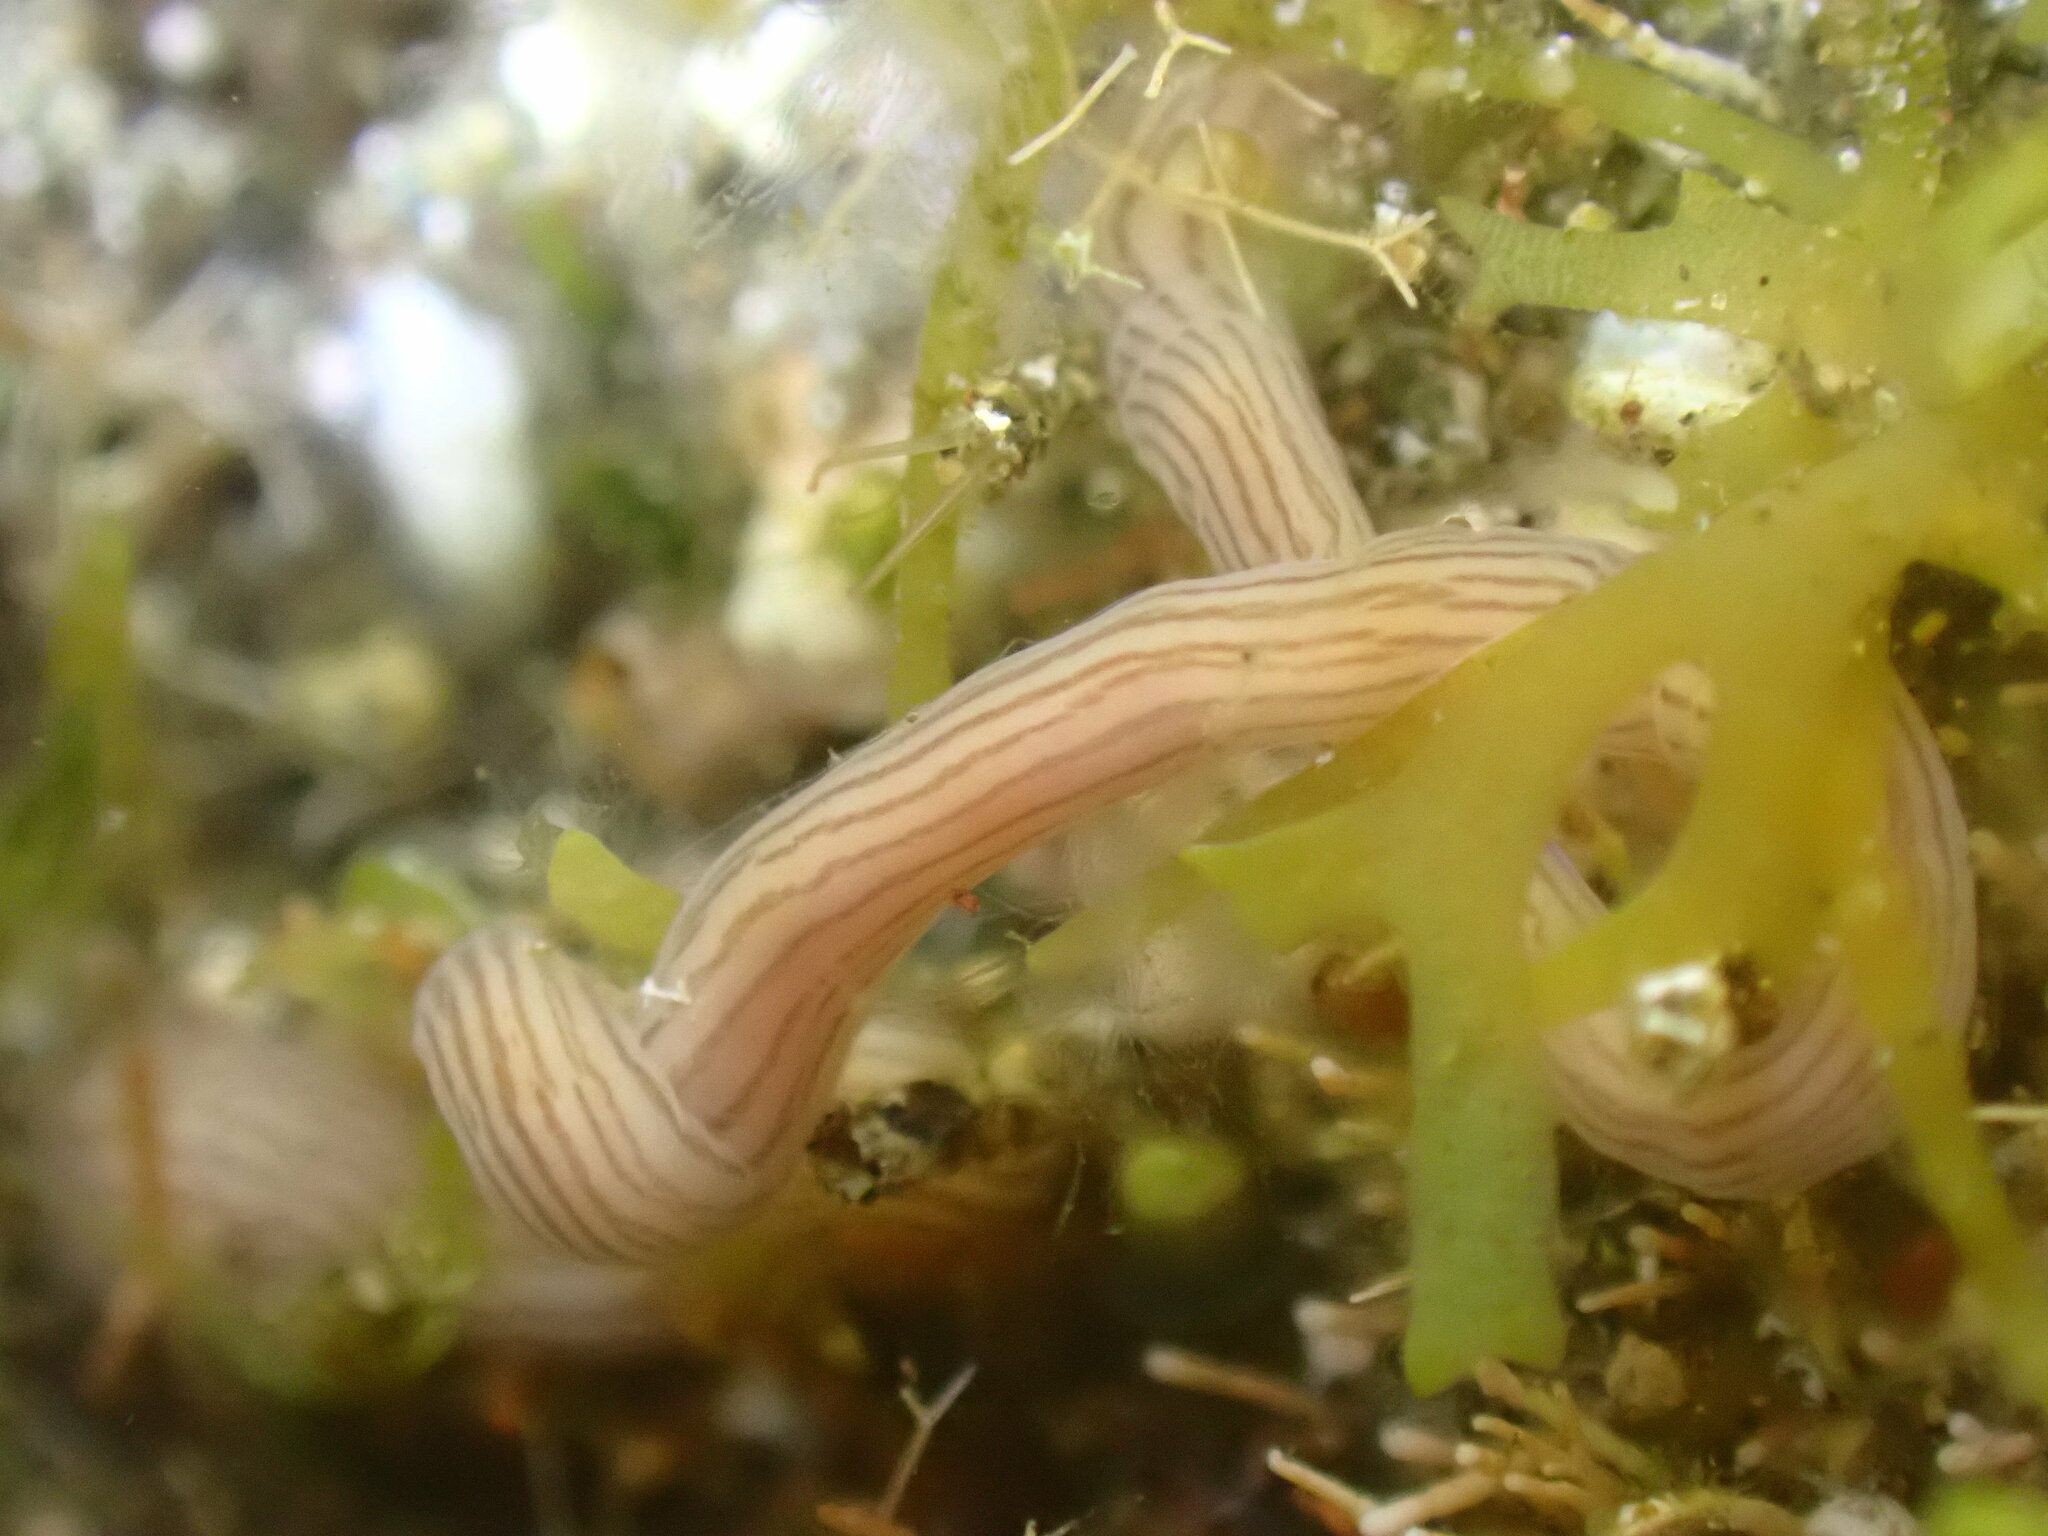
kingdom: Animalia
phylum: Nemertea
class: Pilidiophora
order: Heteronemertea
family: Valenciniidae
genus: Baseodiscus
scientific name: Baseodiscus delineatus
